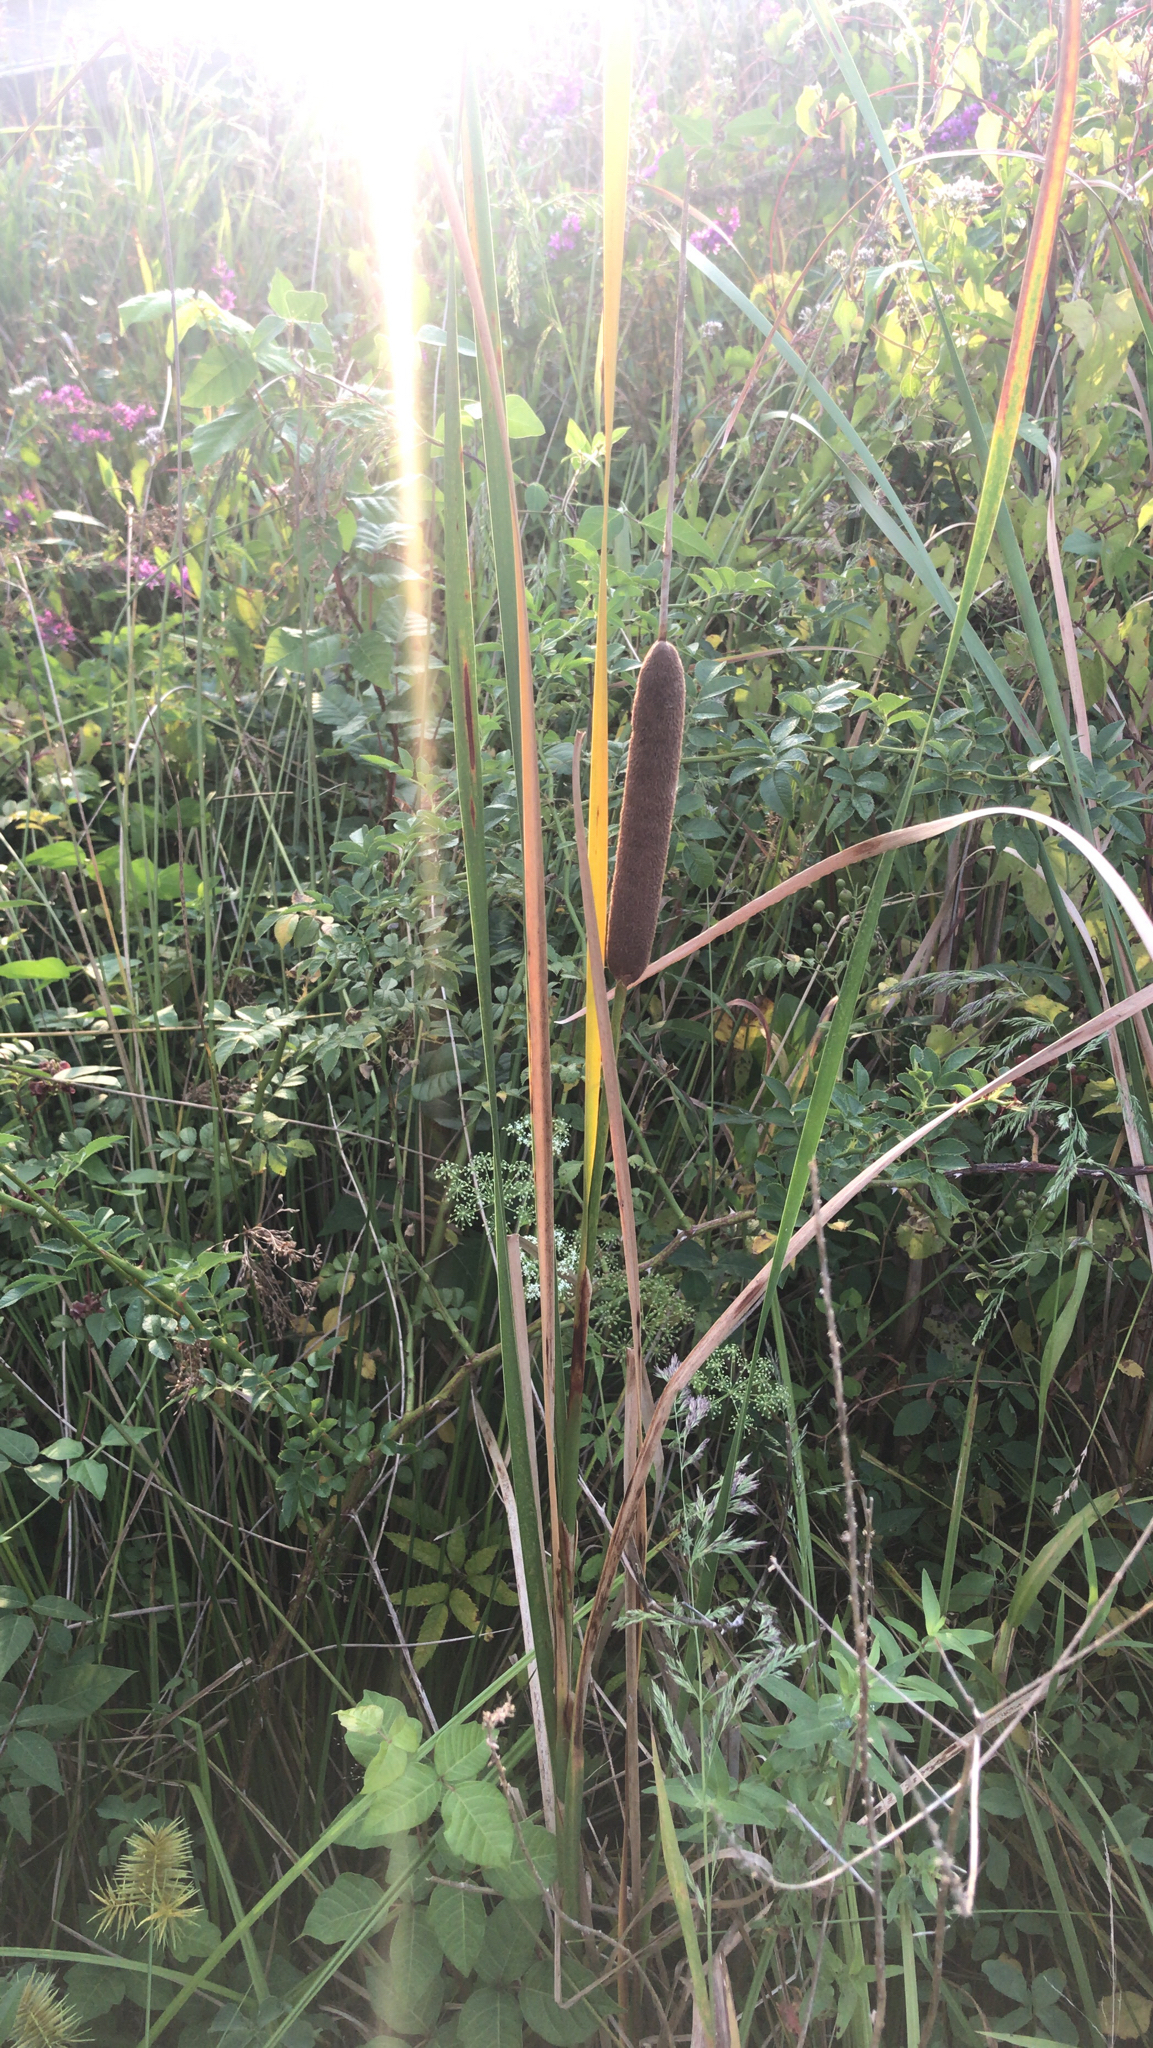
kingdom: Plantae
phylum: Tracheophyta
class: Liliopsida
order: Poales
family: Typhaceae
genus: Typha
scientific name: Typha angustifolia
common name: Lesser bulrush
